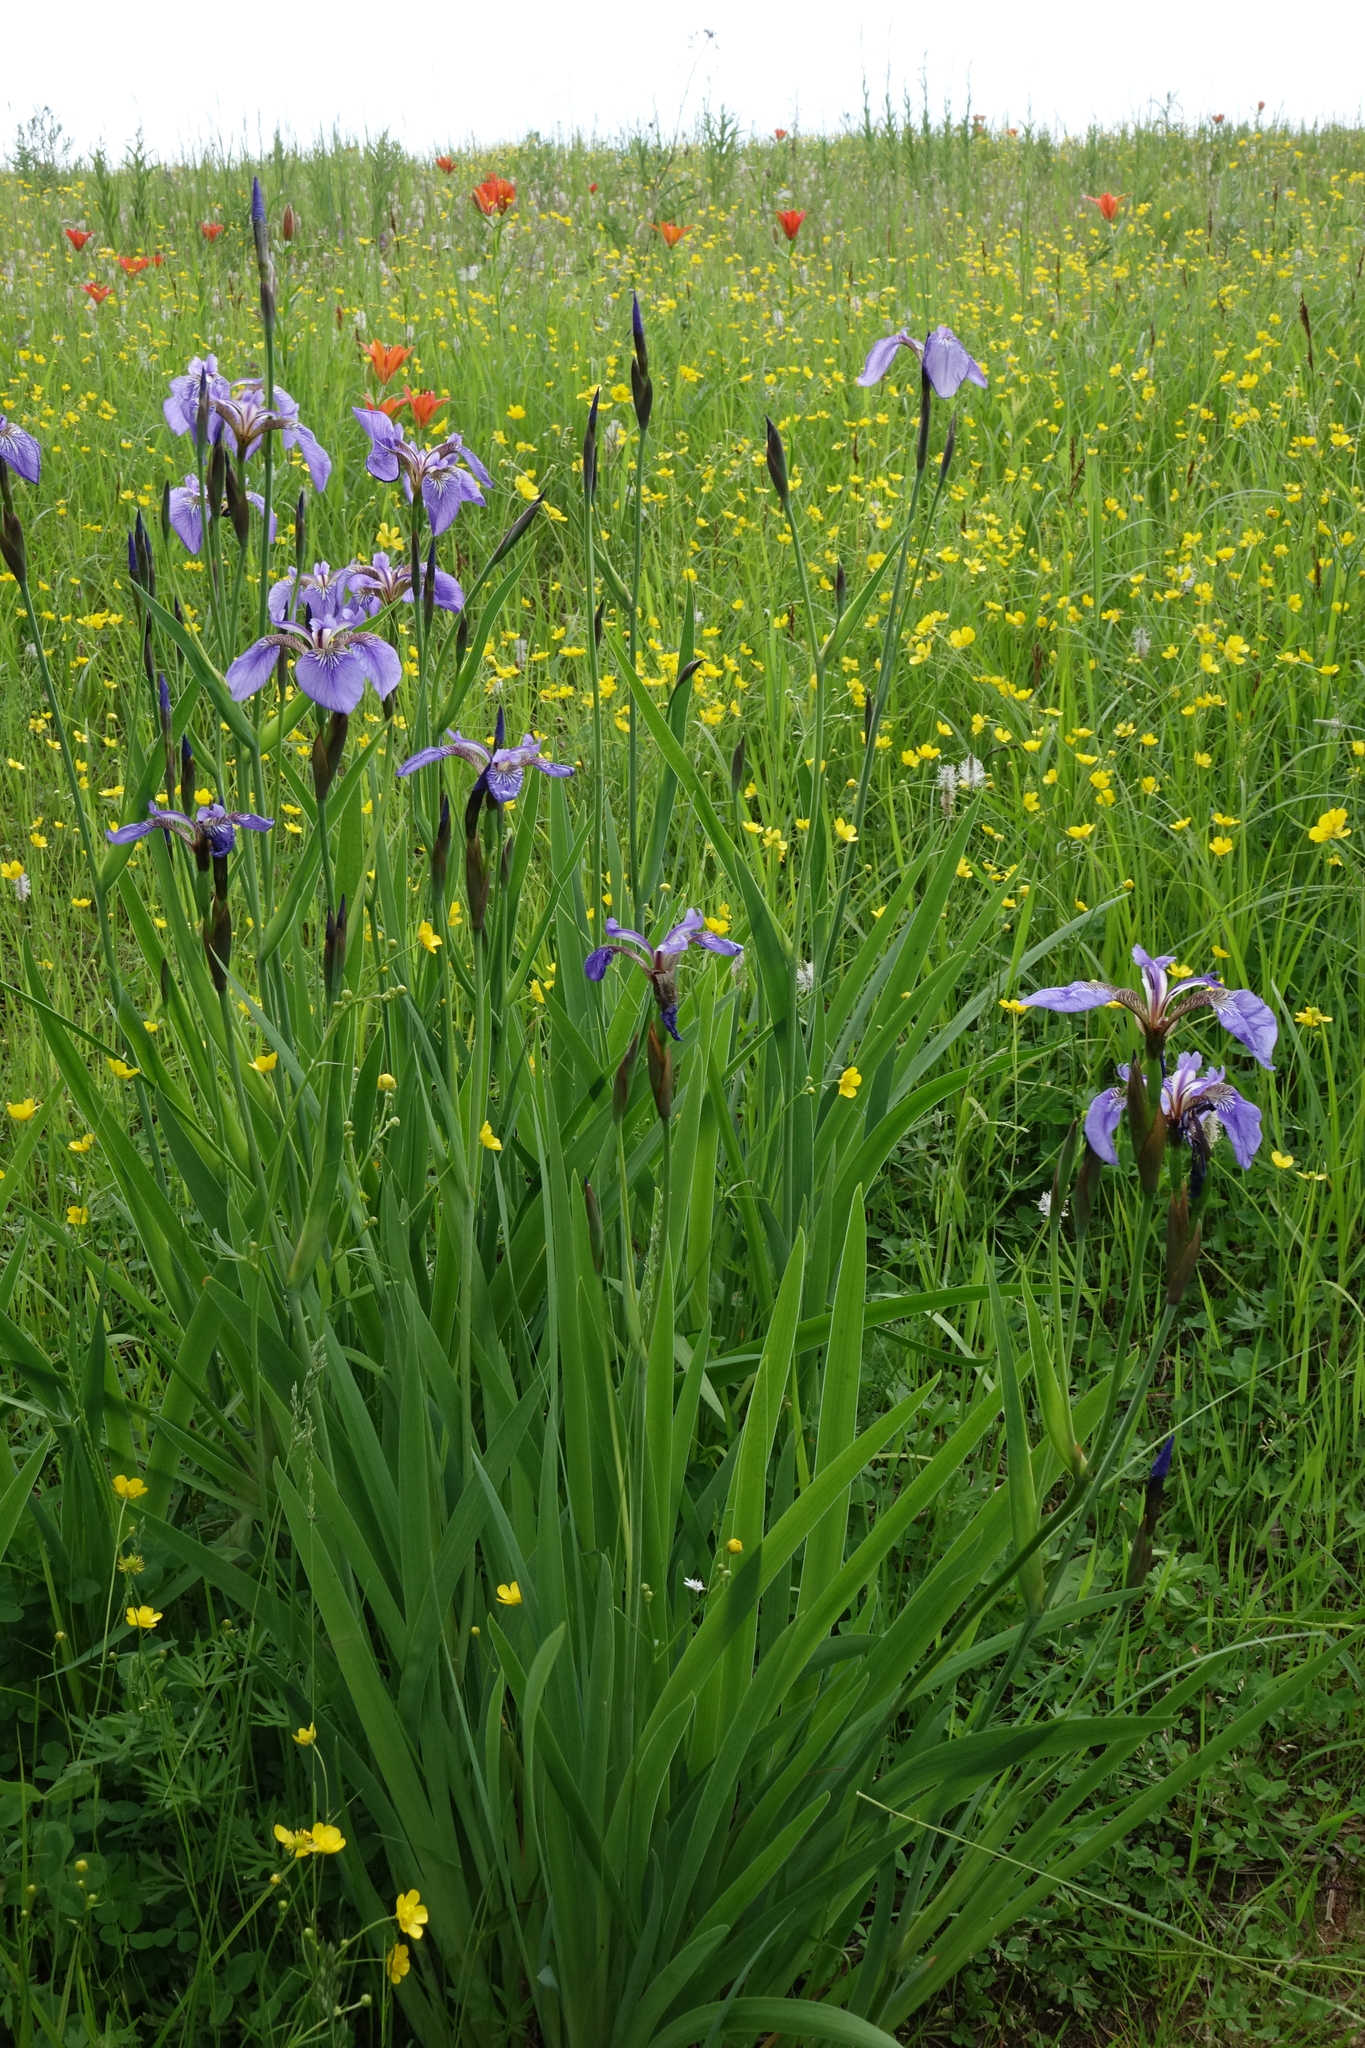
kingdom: Plantae
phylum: Tracheophyta
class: Liliopsida
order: Asparagales
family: Iridaceae
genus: Iris
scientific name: Iris setosa
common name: Arctic blue flag
